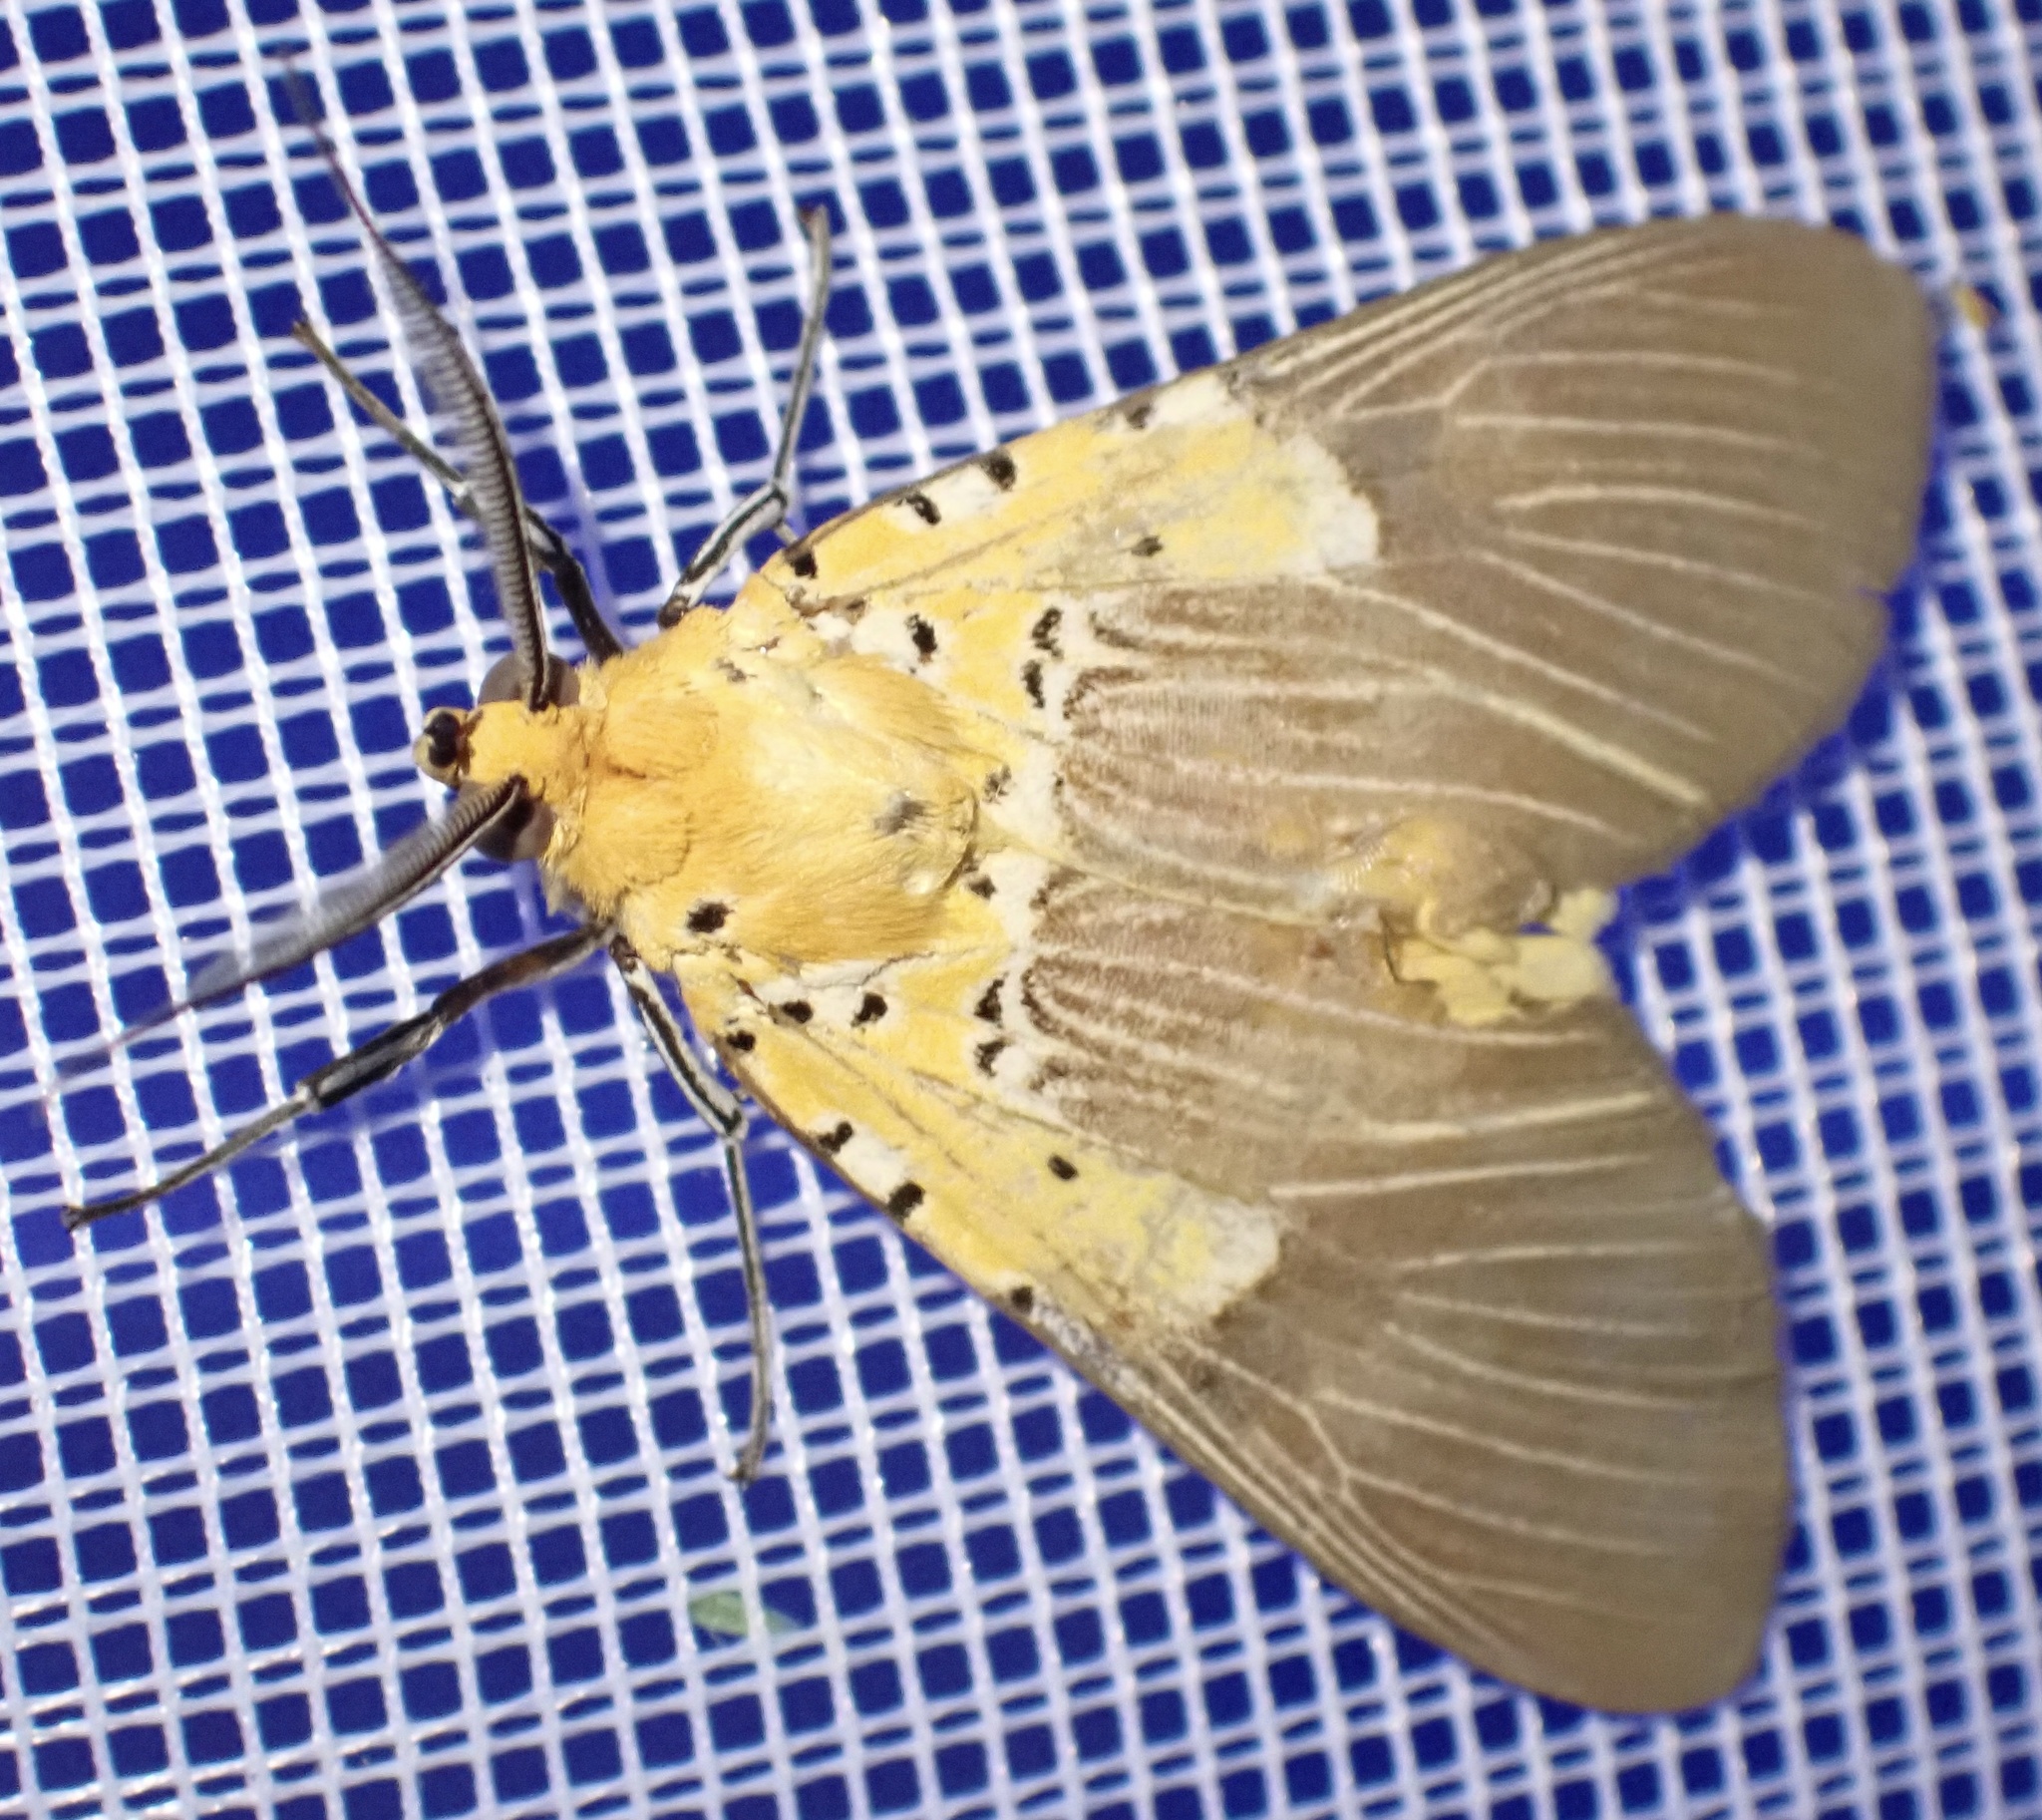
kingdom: Animalia
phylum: Arthropoda
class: Insecta
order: Lepidoptera
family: Erebidae
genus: Asota
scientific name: Asota speciosa
